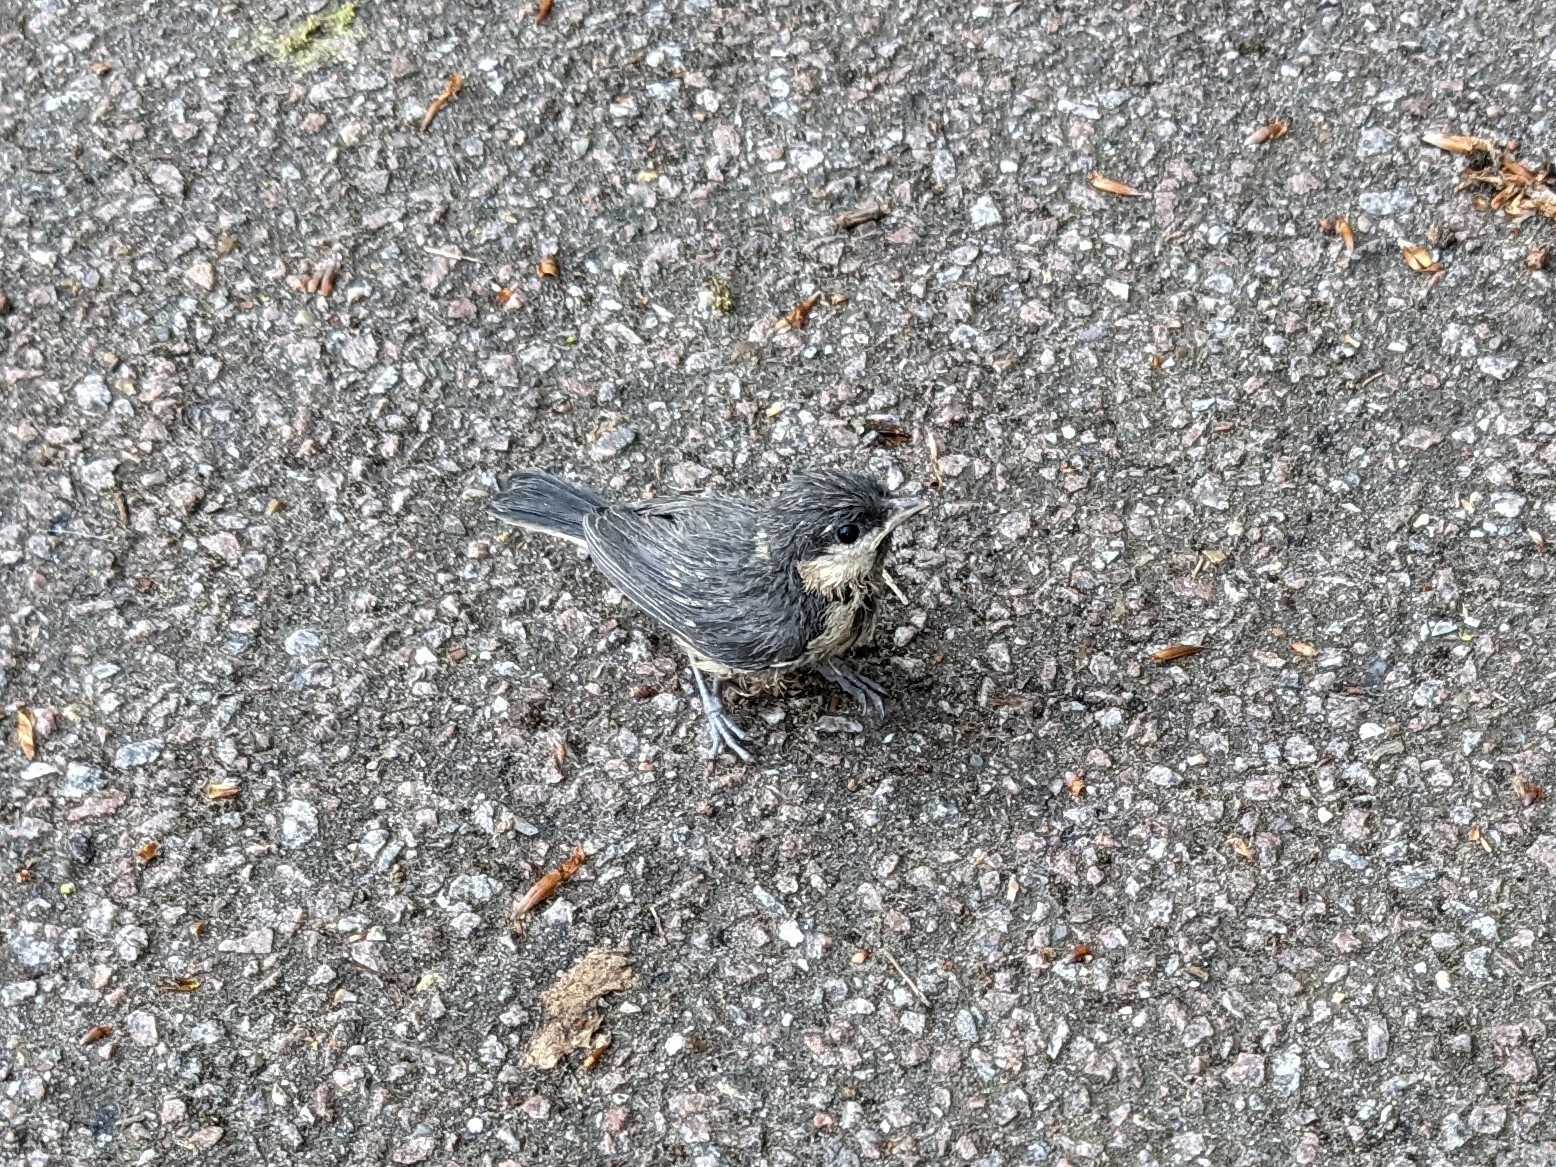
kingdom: Animalia
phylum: Chordata
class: Aves
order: Passeriformes
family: Paridae
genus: Periparus
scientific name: Periparus ater
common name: Coal tit
